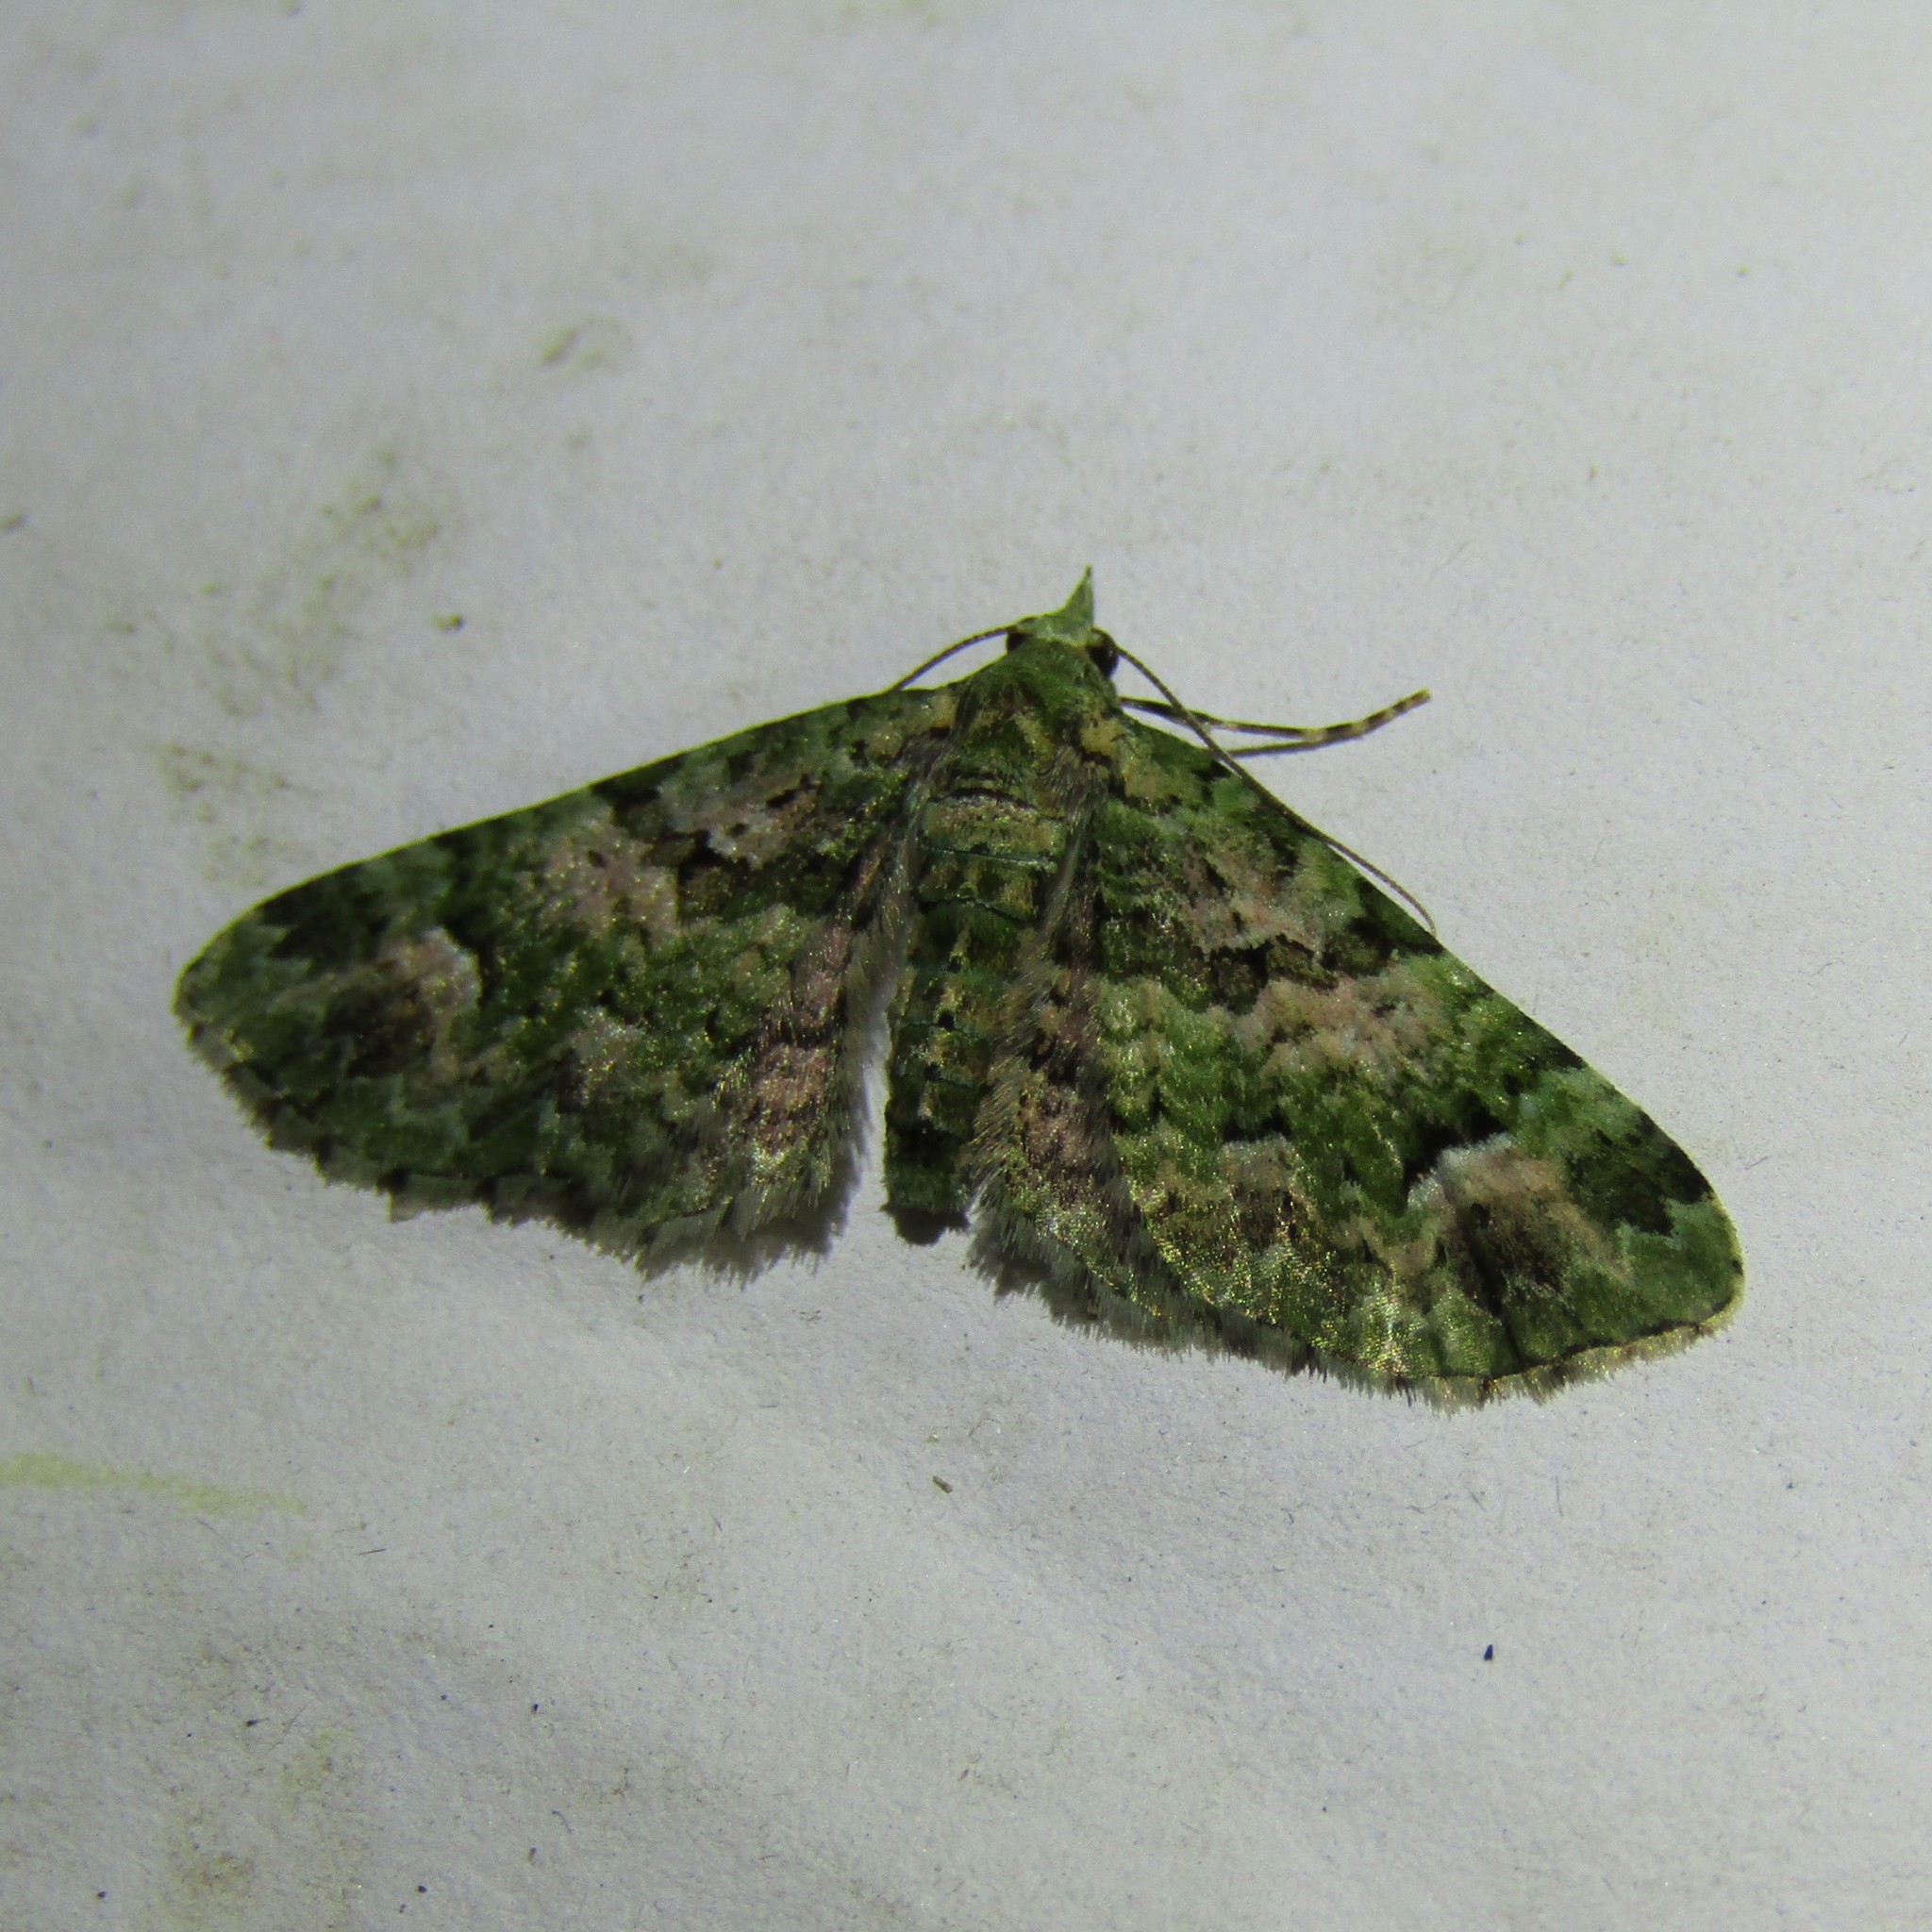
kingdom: Animalia
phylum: Arthropoda
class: Insecta
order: Lepidoptera
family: Geometridae
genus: Pasiphila
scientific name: Pasiphila semochlora
